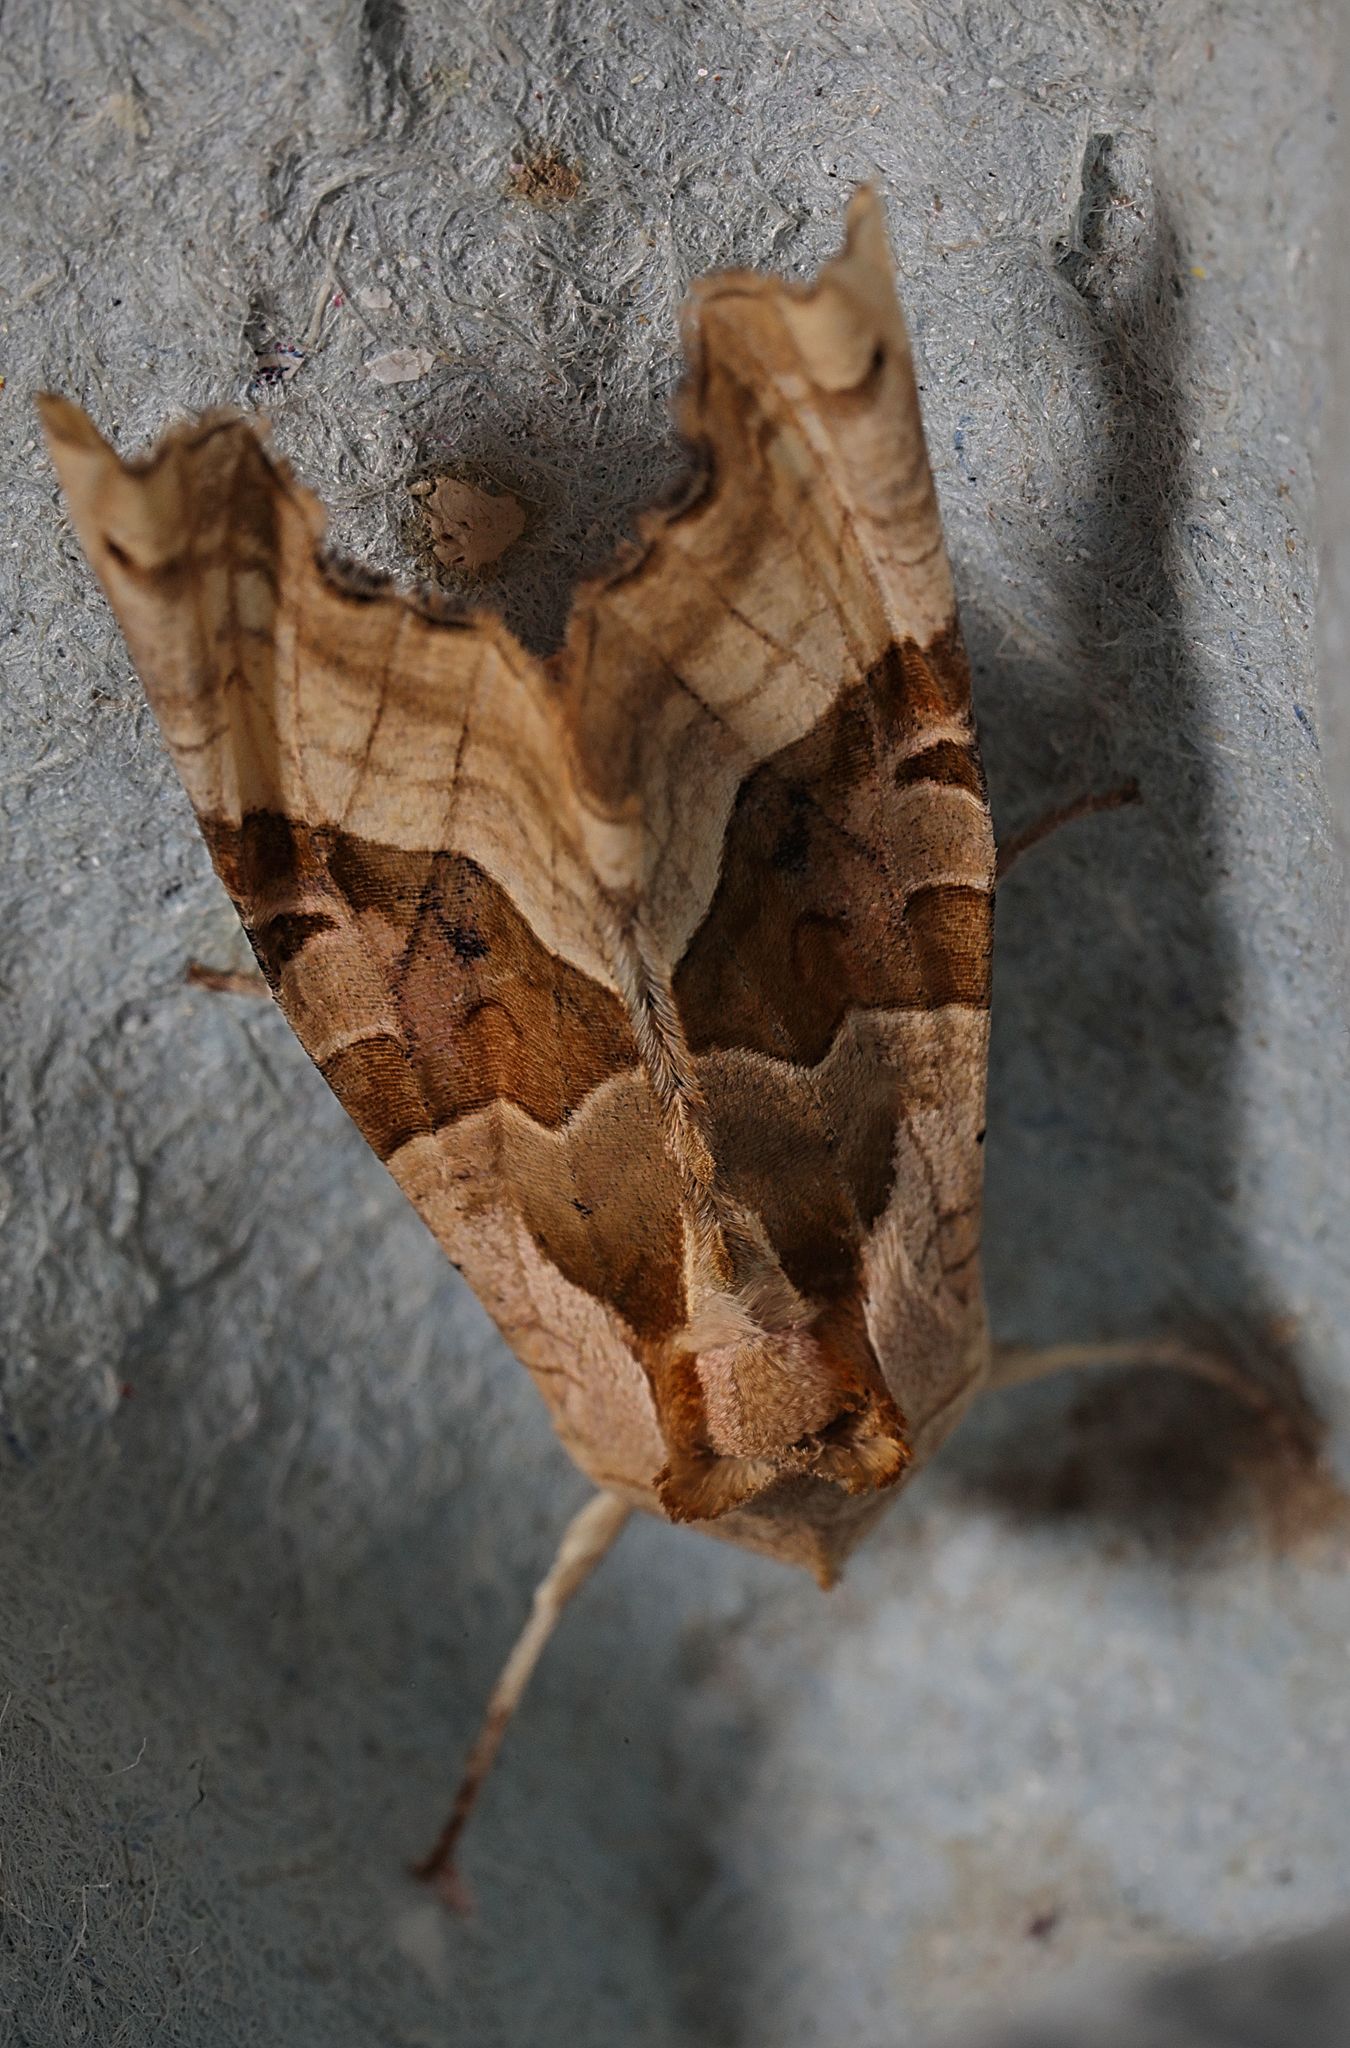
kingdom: Animalia
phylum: Arthropoda
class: Insecta
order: Lepidoptera
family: Noctuidae
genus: Phlogophora
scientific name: Phlogophora meticulosa
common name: Angle shades
